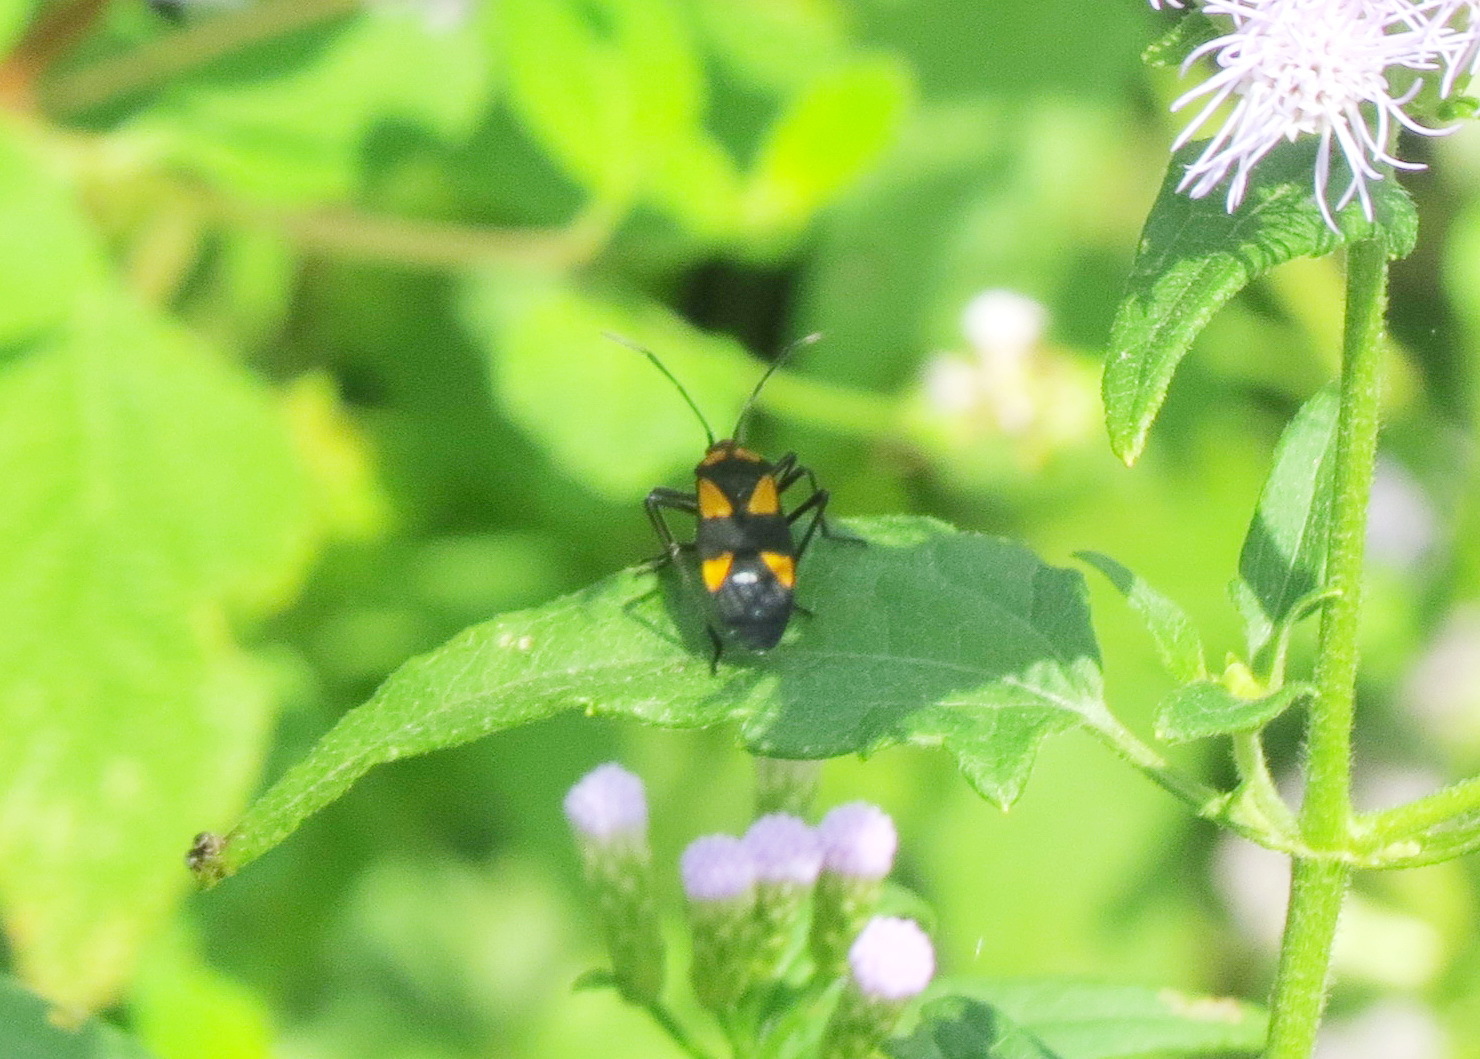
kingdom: Animalia
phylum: Arthropoda
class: Insecta
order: Hemiptera
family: Lygaeidae
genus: Oncopeltus
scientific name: Oncopeltus sexmaculatus
